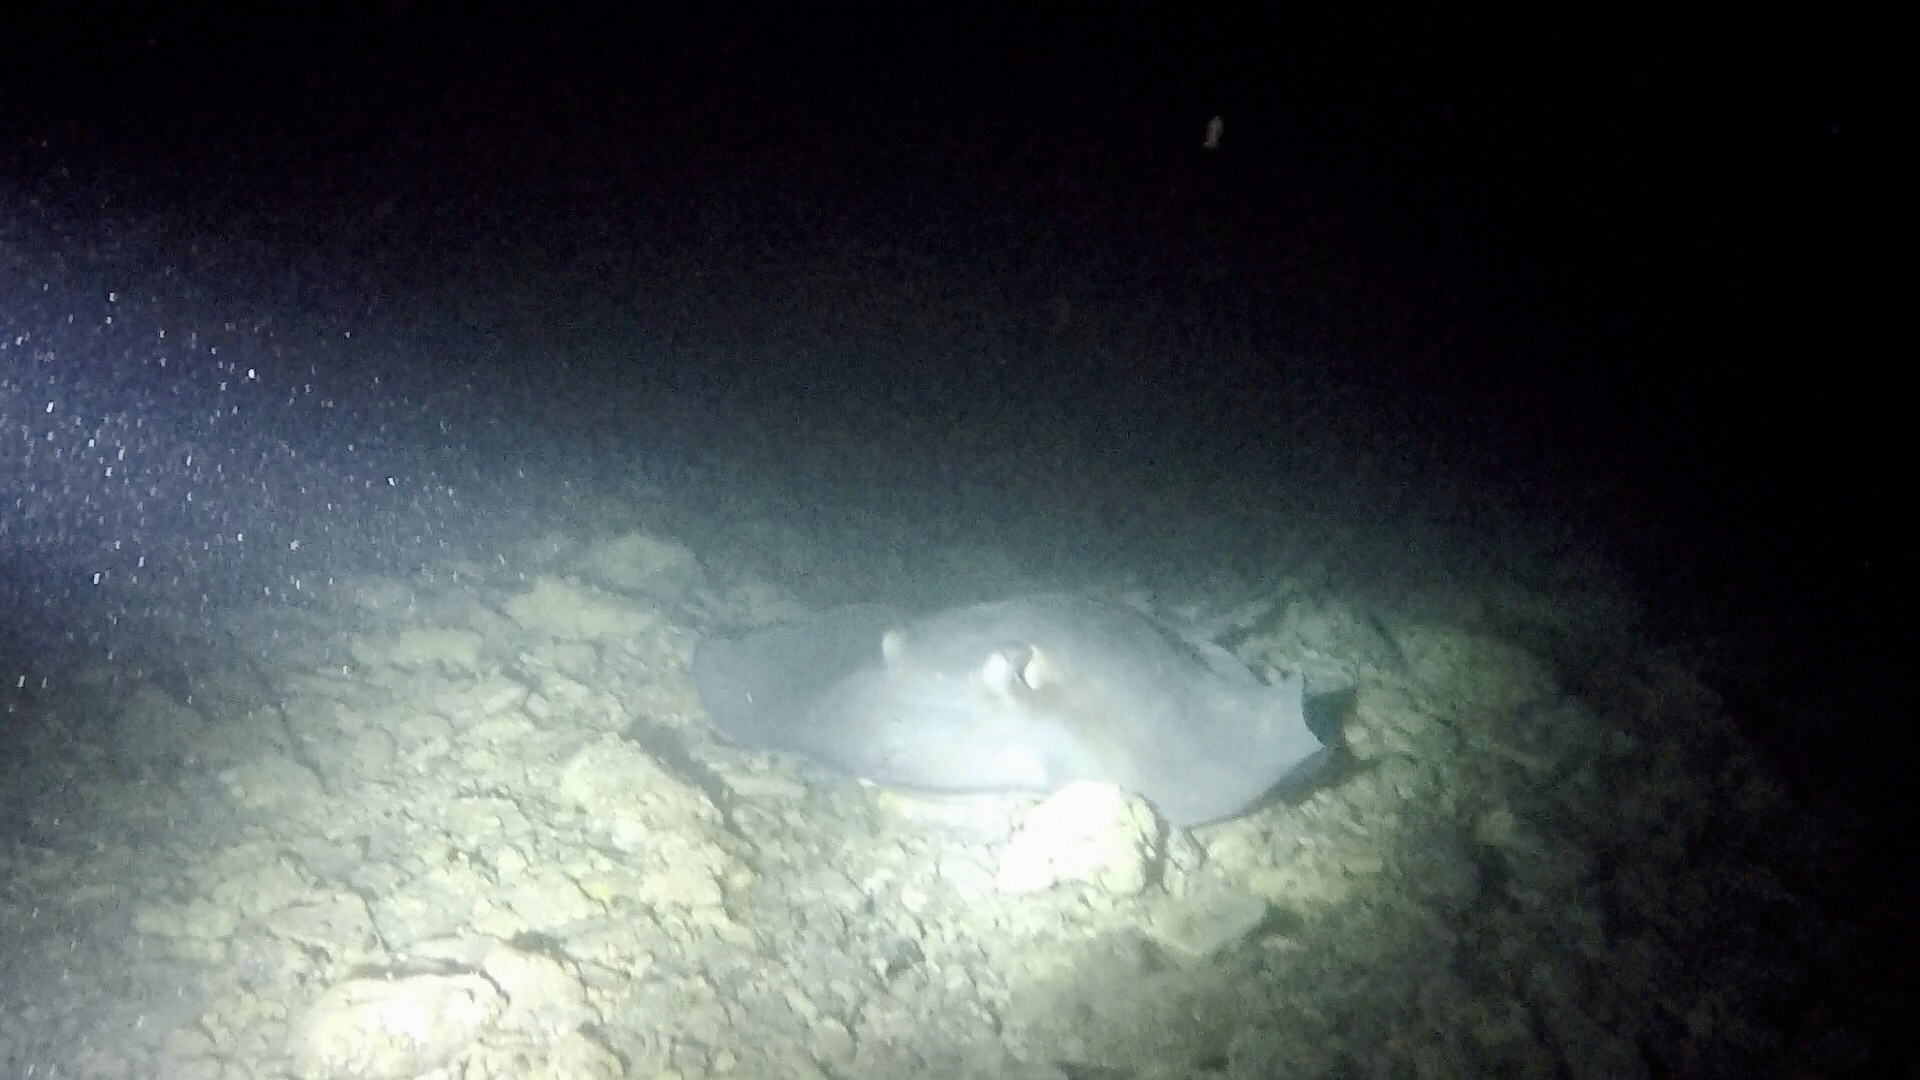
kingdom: Animalia
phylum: Chordata
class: Elasmobranchii
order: Myliobatiformes
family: Dasyatidae
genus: Hypanus
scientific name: Hypanus americanus
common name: Southern stingray
